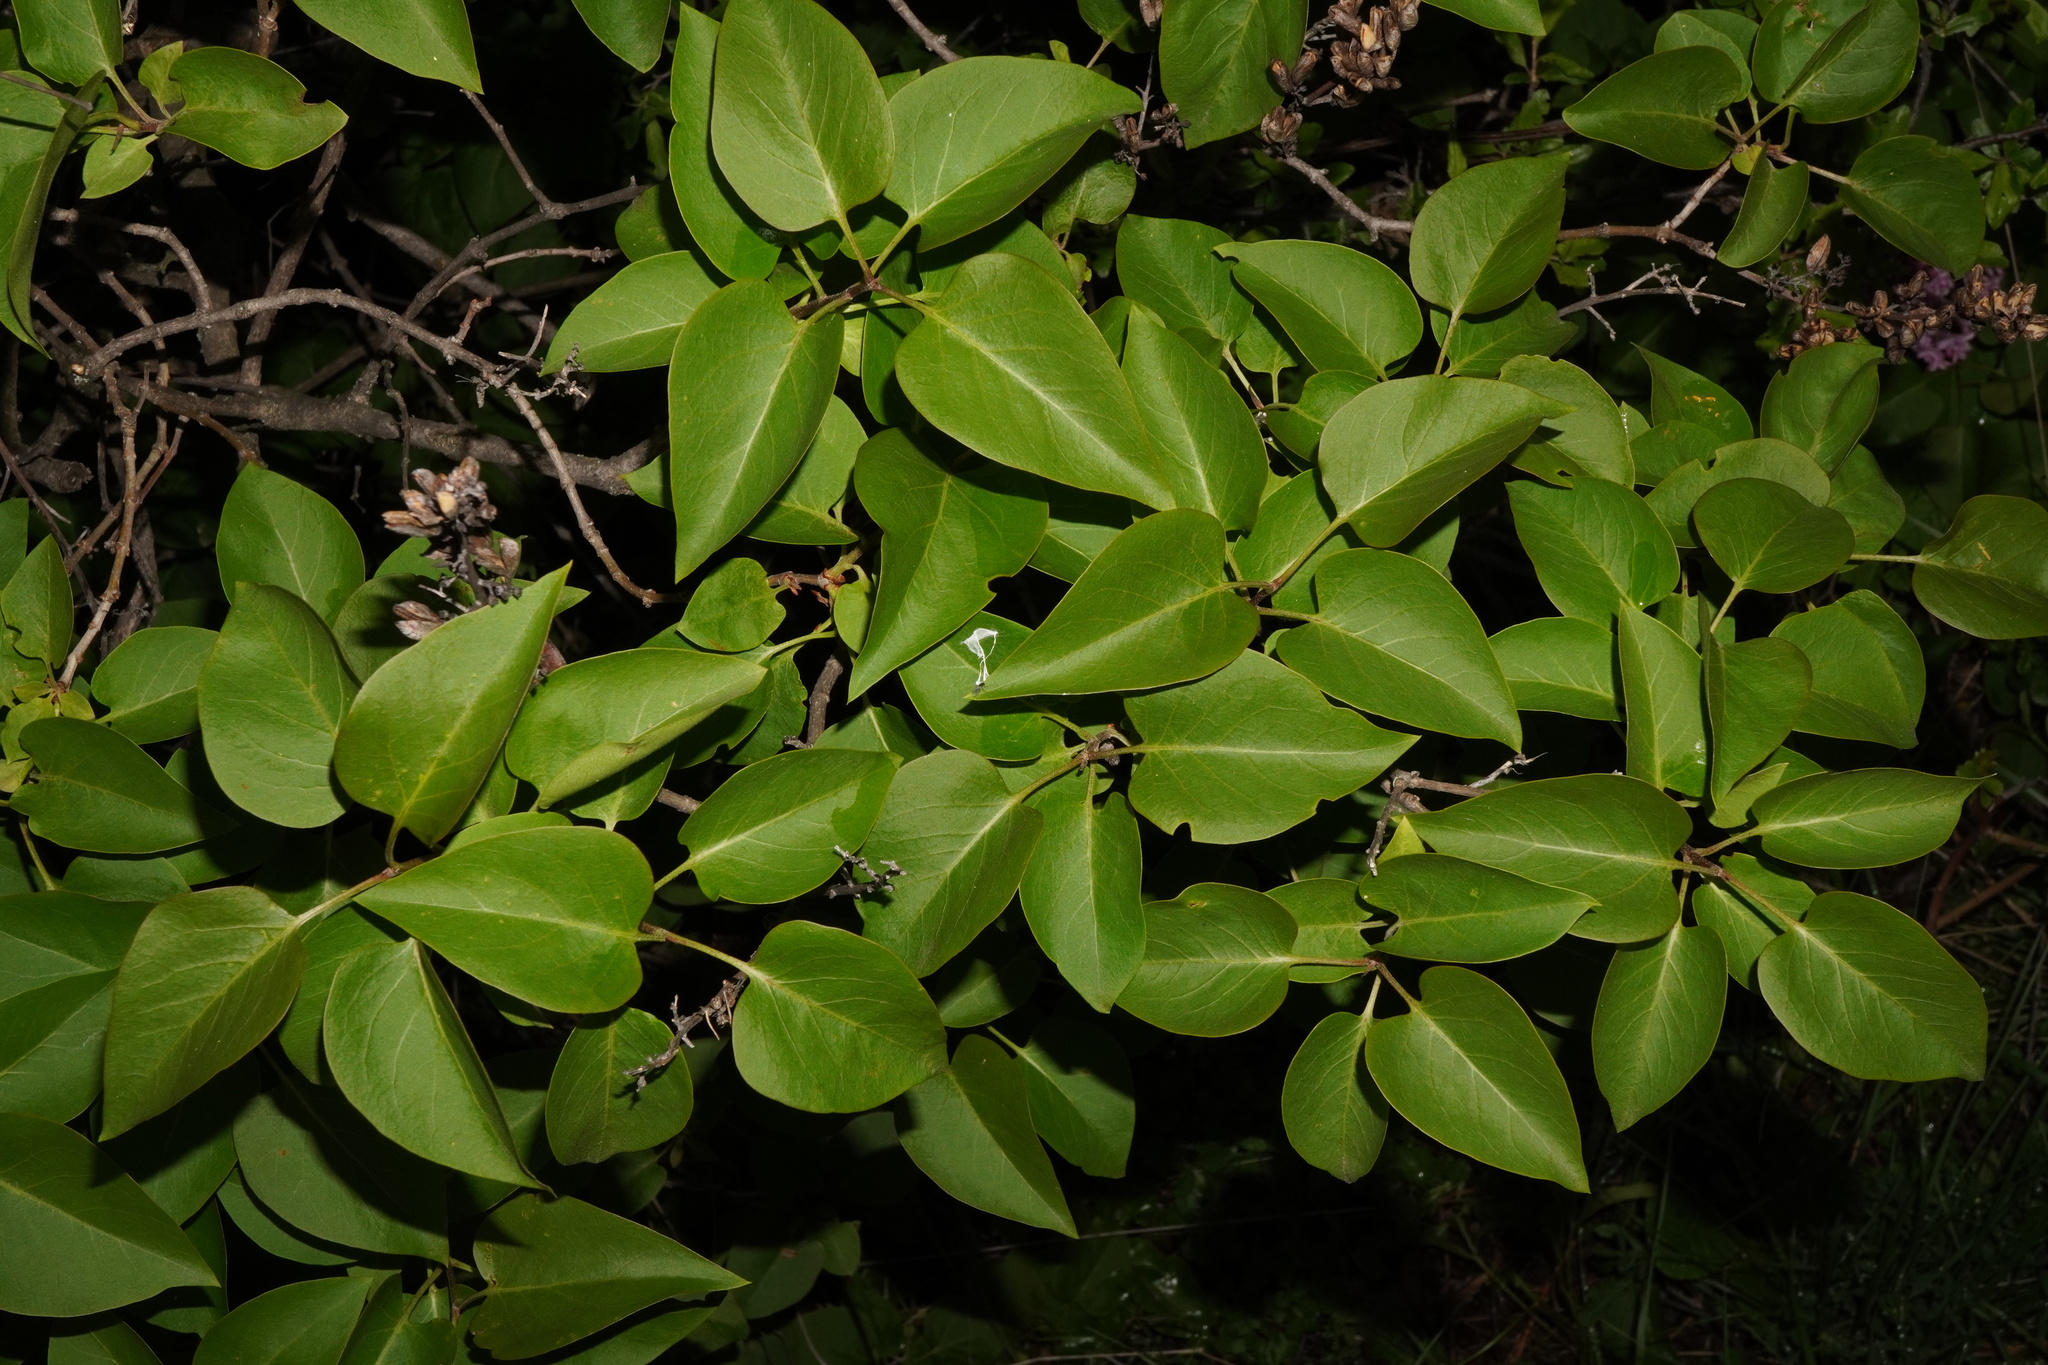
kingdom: Plantae
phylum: Tracheophyta
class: Magnoliopsida
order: Lamiales
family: Oleaceae
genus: Syringa
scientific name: Syringa vulgaris
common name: Common lilac
